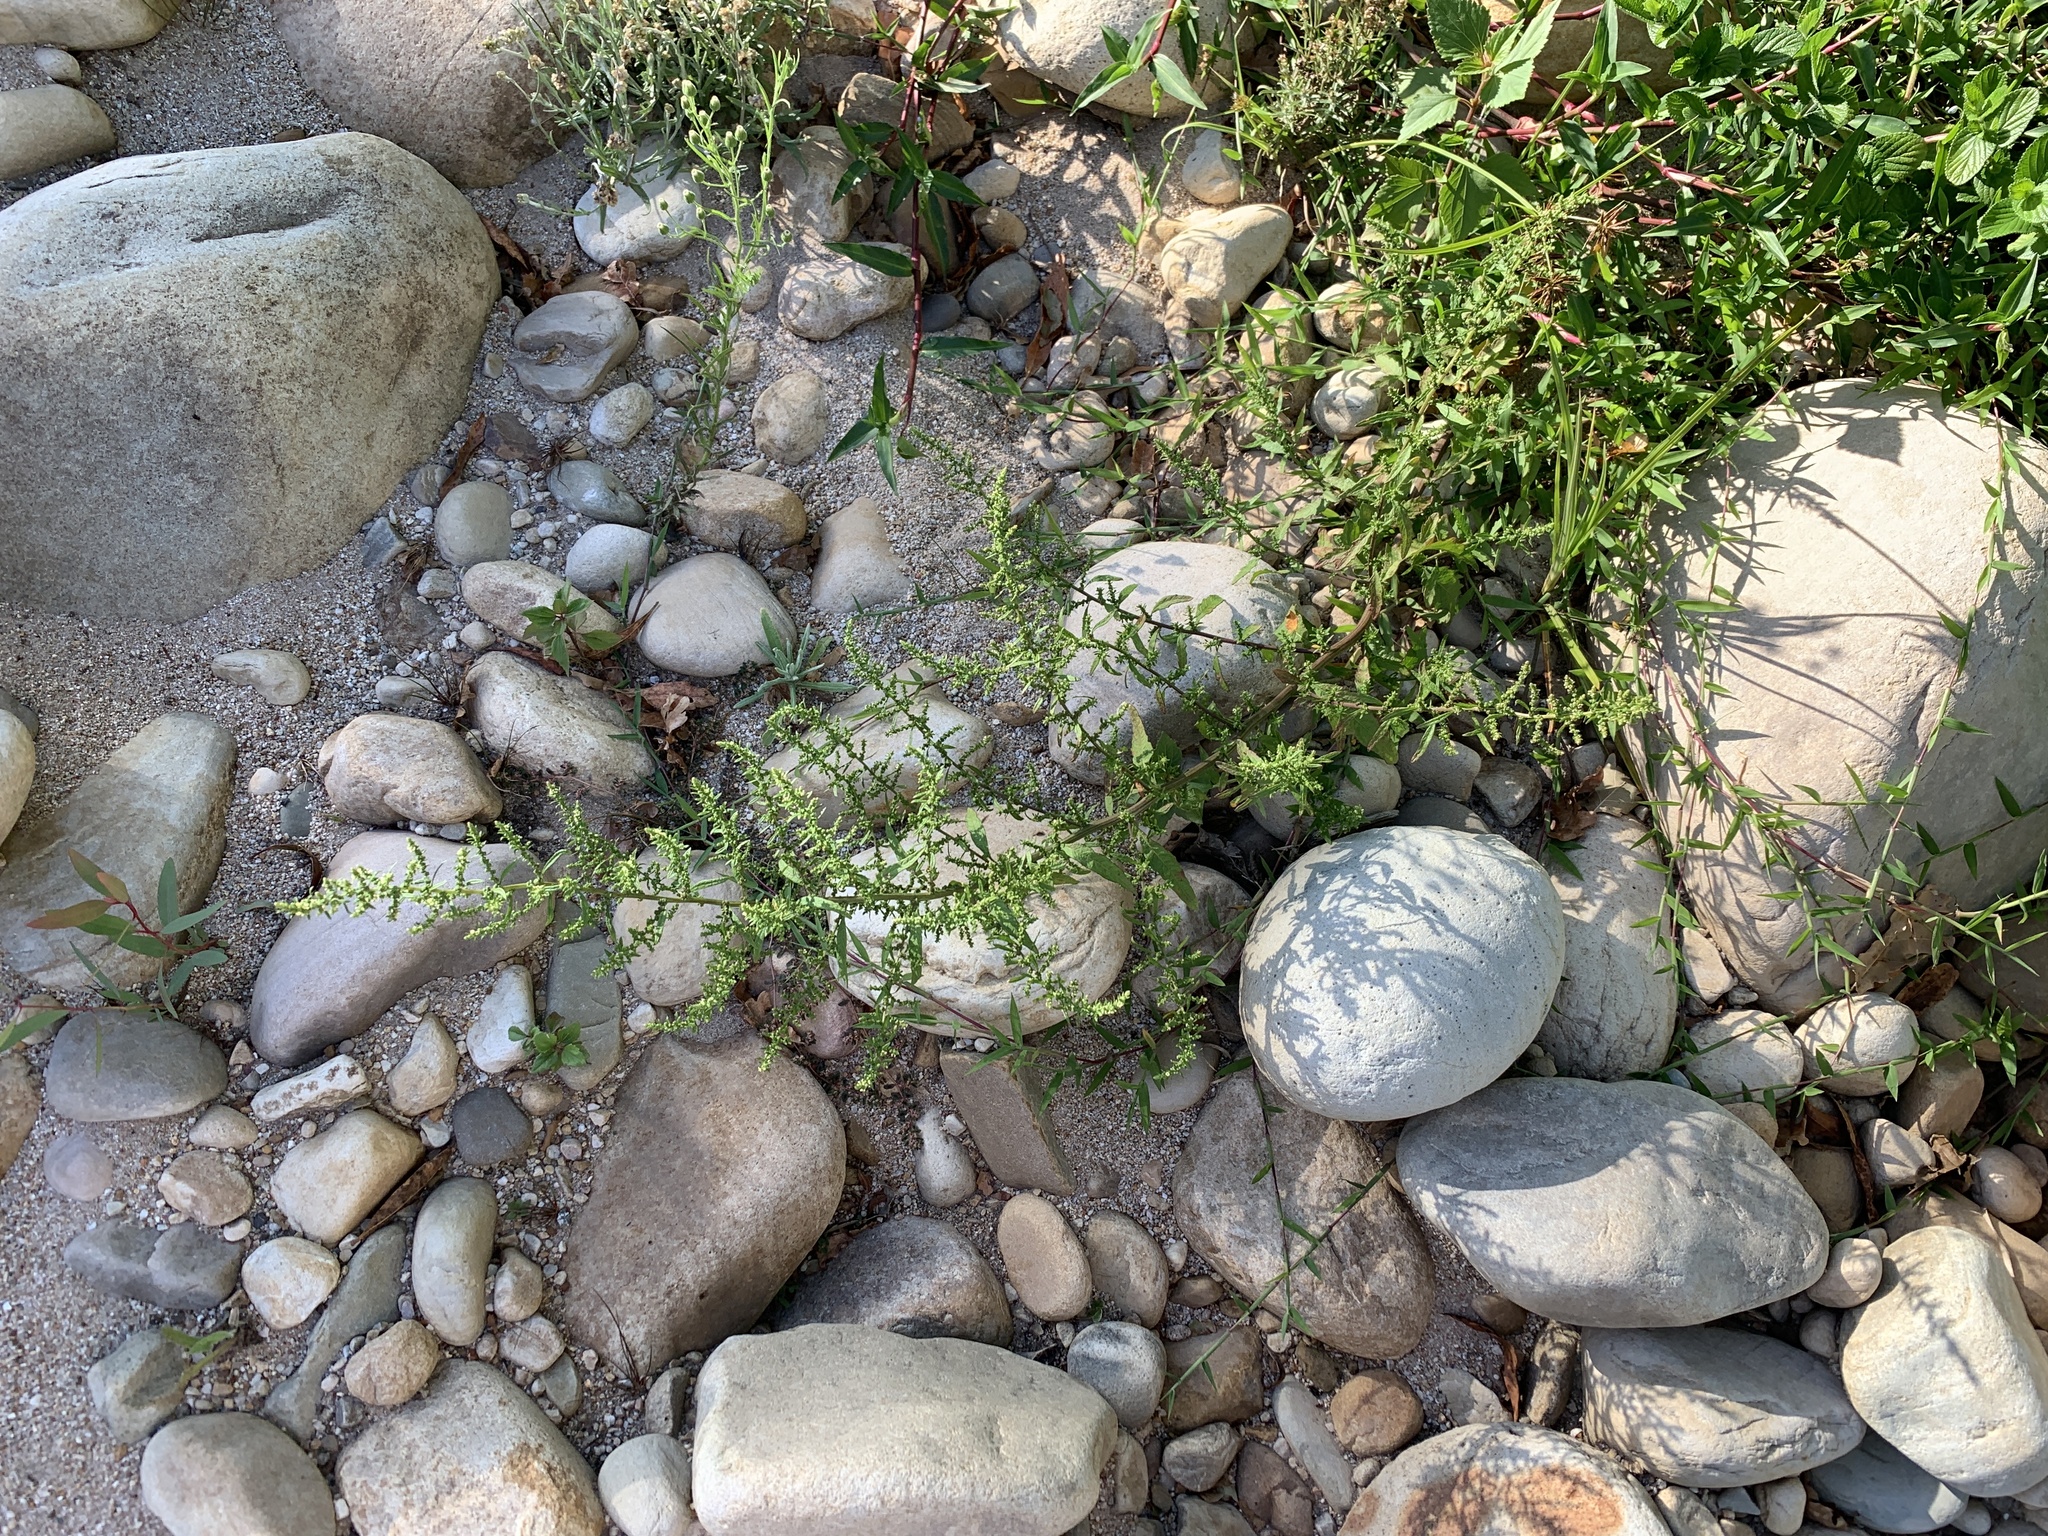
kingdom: Plantae
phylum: Tracheophyta
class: Magnoliopsida
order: Caryophyllales
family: Amaranthaceae
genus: Dysphania
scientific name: Dysphania ambrosioides
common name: Wormseed
